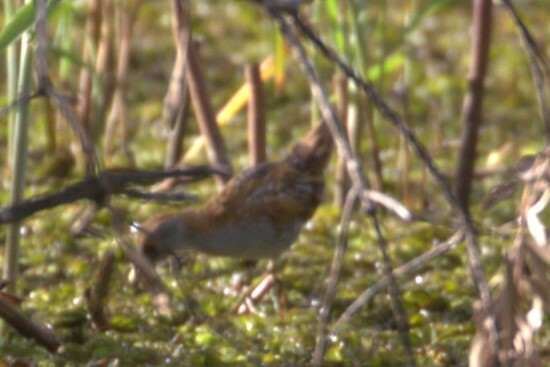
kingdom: Animalia
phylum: Chordata
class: Aves
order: Gruiformes
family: Rallidae
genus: Porzana
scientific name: Porzana pusilla
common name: Baillon's crake
